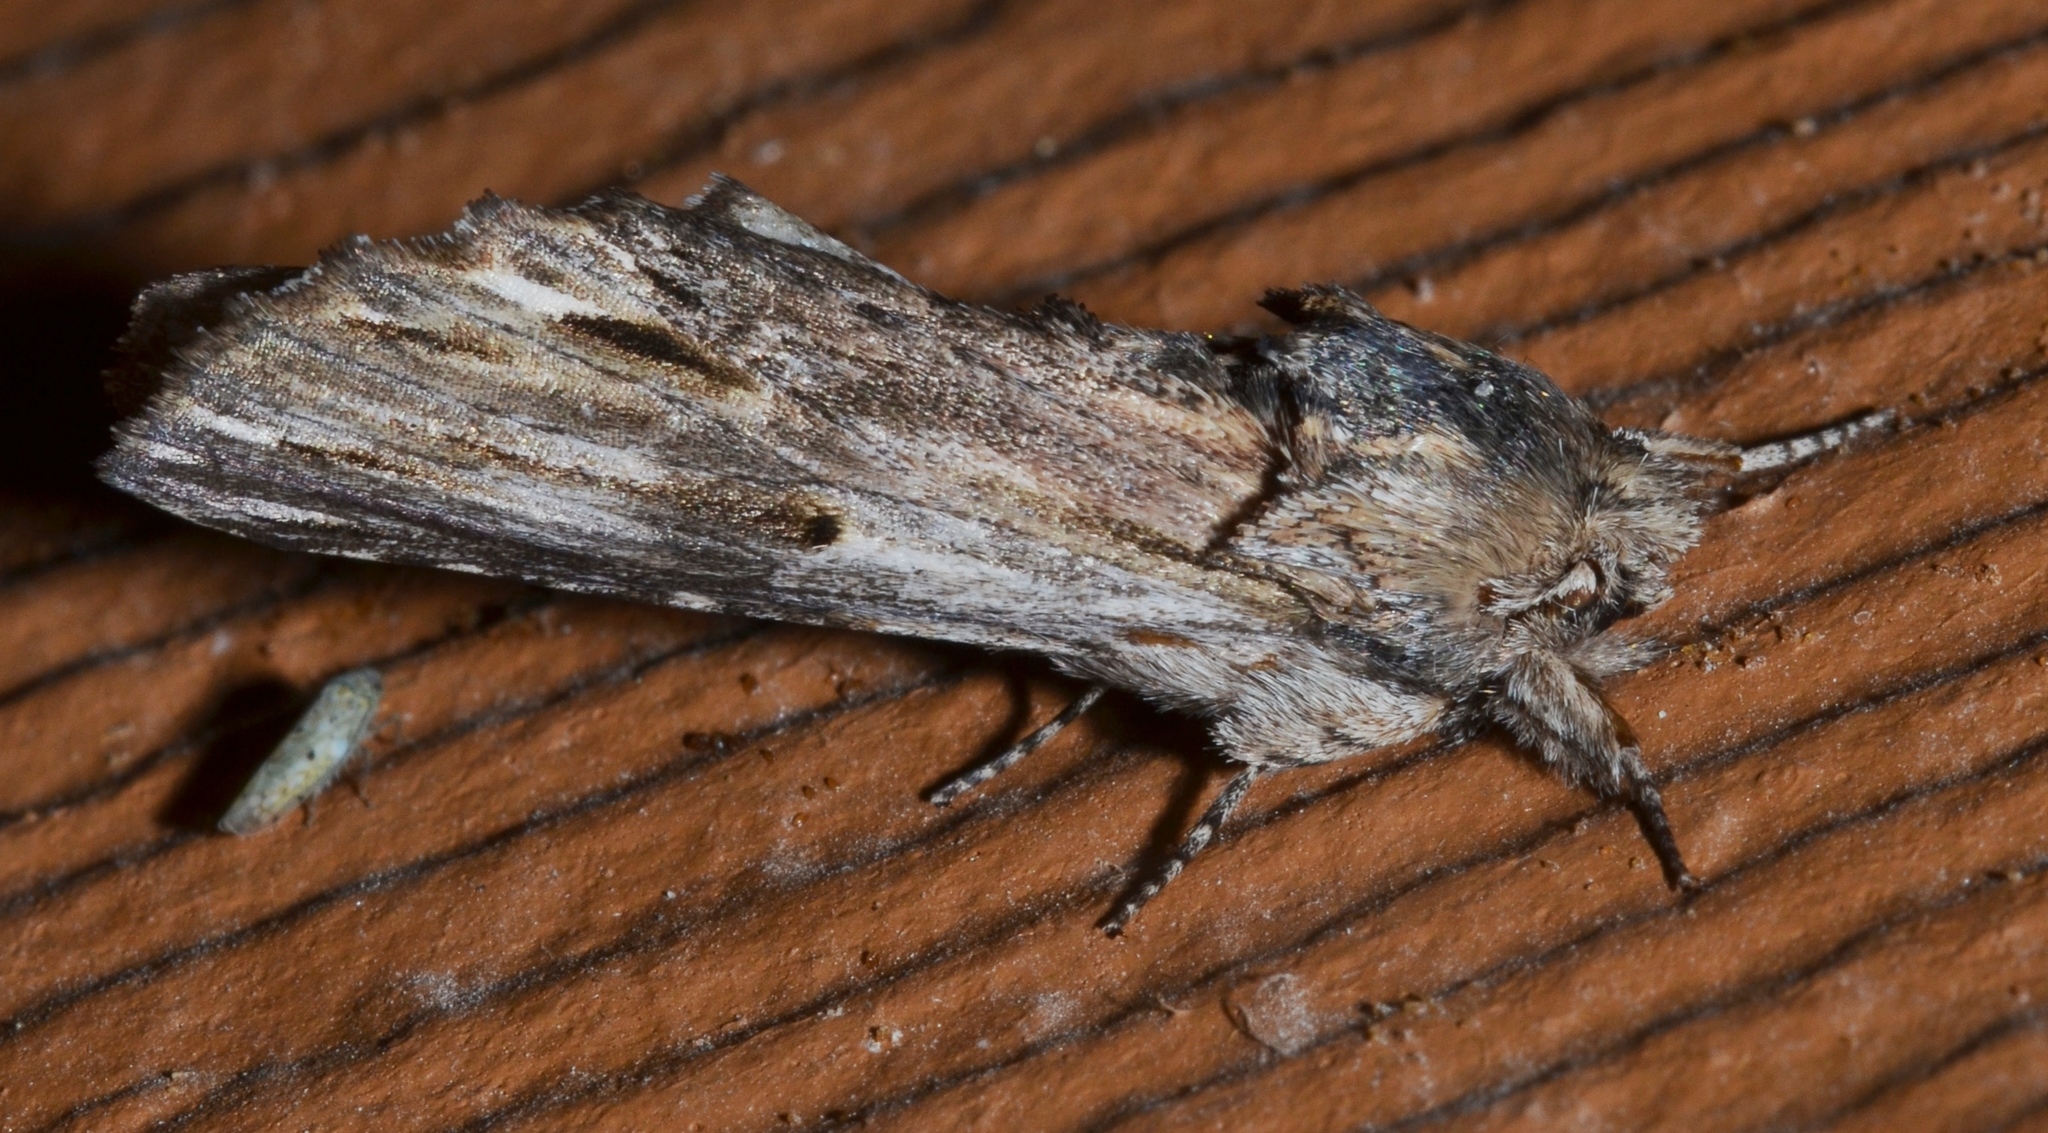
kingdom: Animalia
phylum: Arthropoda
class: Insecta
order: Lepidoptera
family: Notodontidae
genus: Oligocentria
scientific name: Oligocentria Ianassa lignicolor
